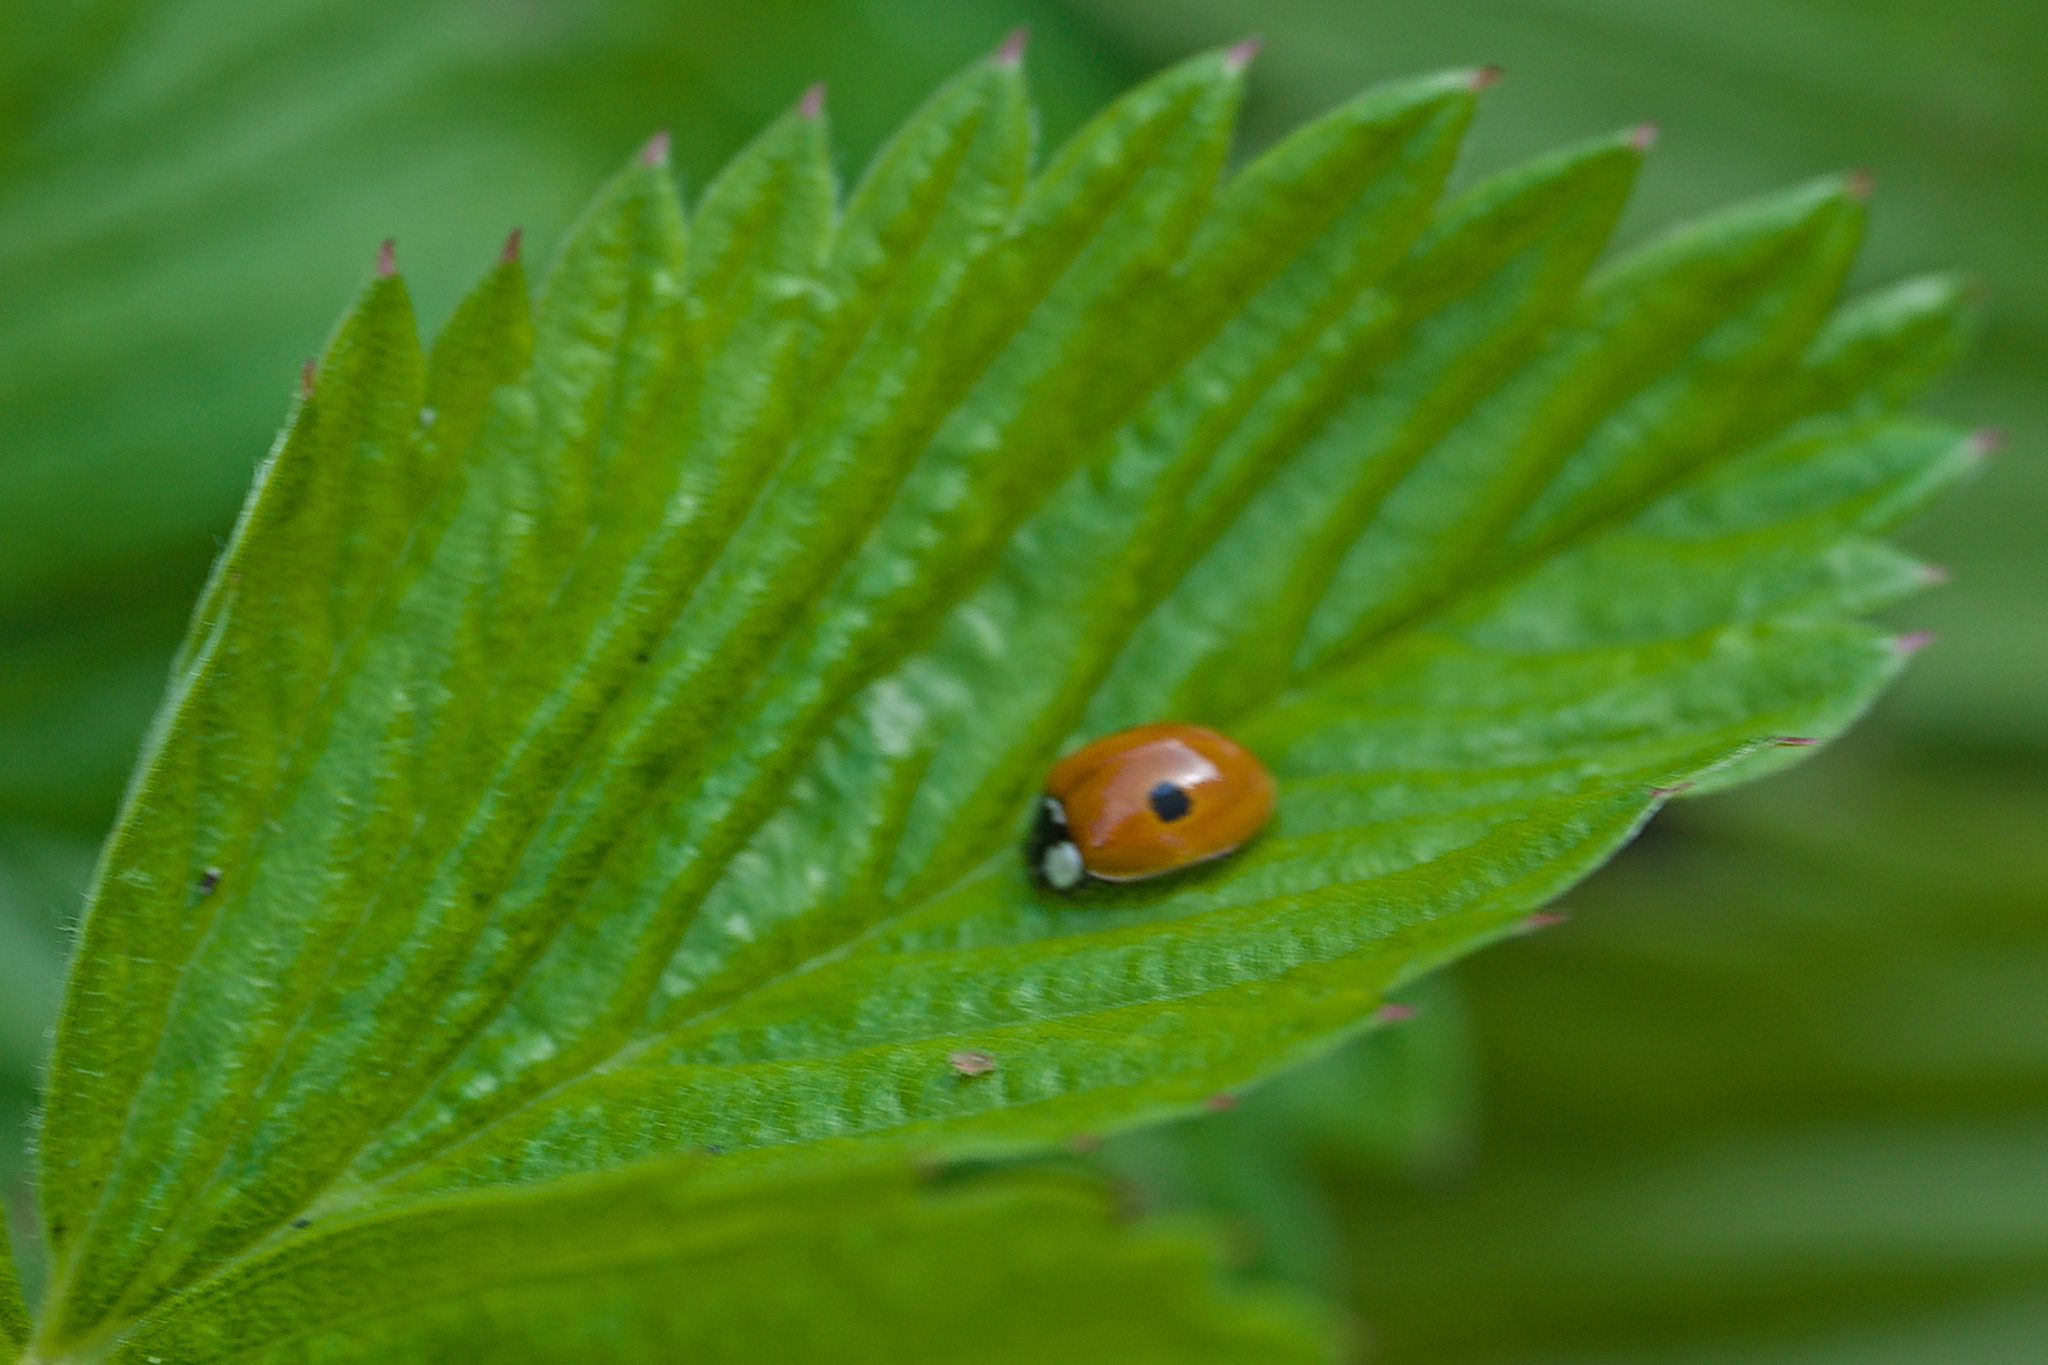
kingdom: Animalia
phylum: Arthropoda
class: Insecta
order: Coleoptera
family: Coccinellidae
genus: Adalia
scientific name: Adalia bipunctata
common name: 2-spot ladybird
